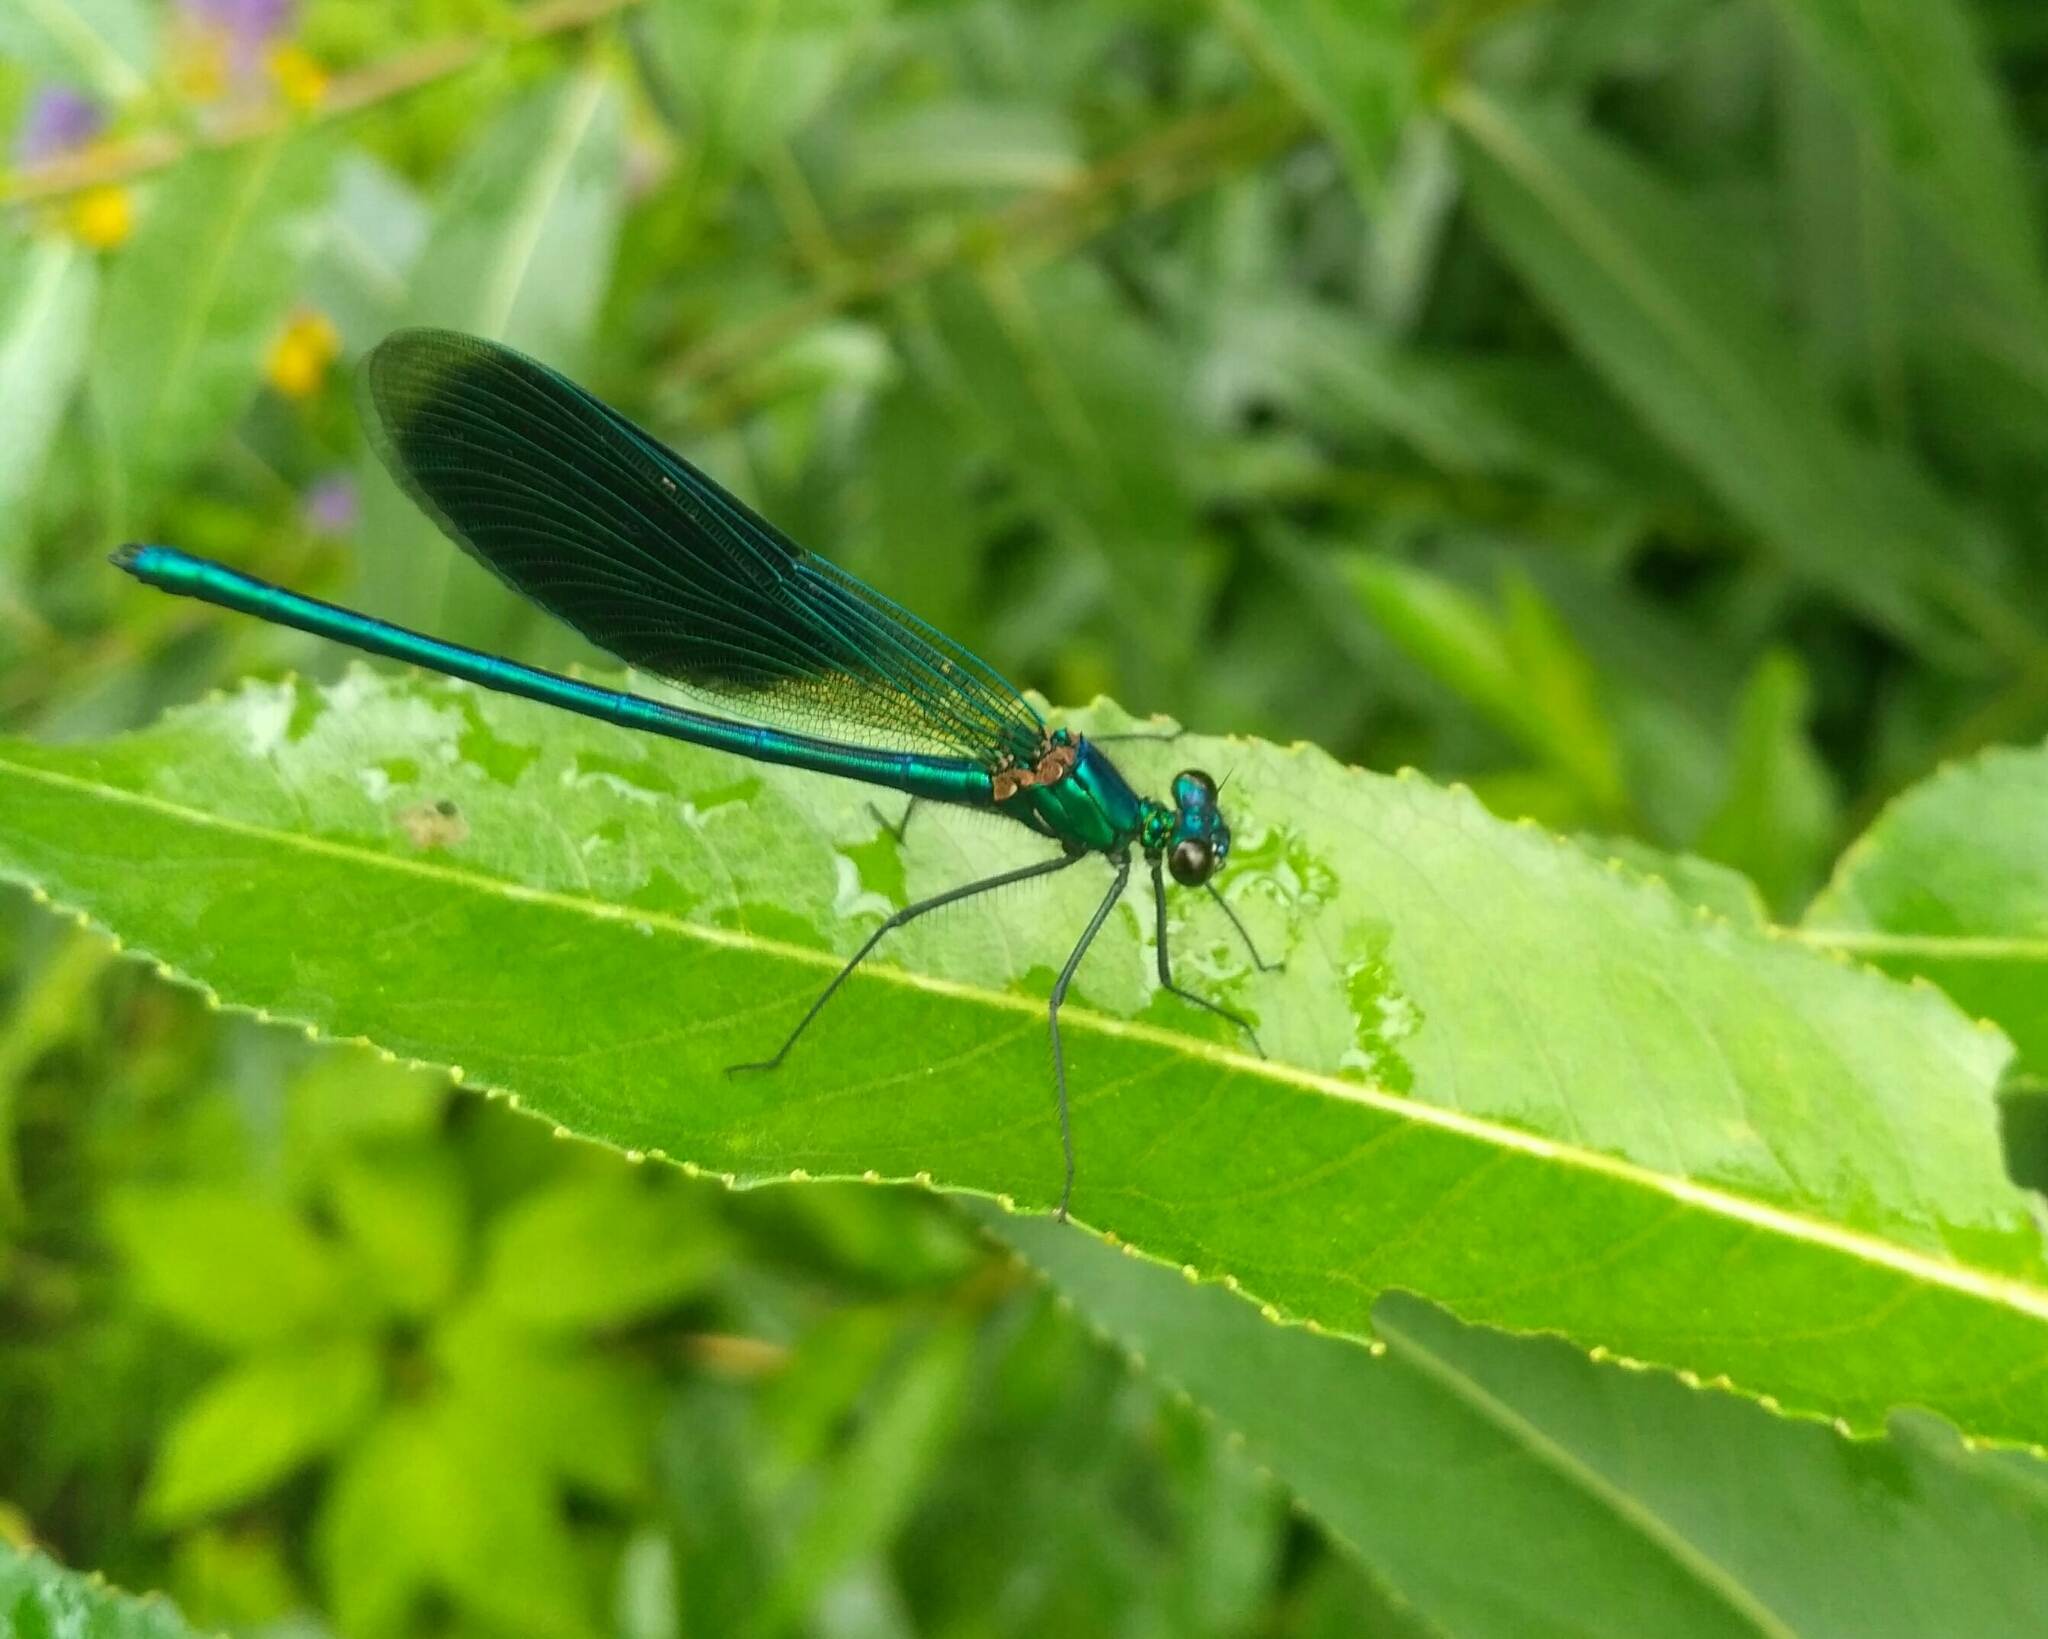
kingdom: Animalia
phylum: Arthropoda
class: Insecta
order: Odonata
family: Calopterygidae
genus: Calopteryx
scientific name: Calopteryx splendens
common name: Banded demoiselle
